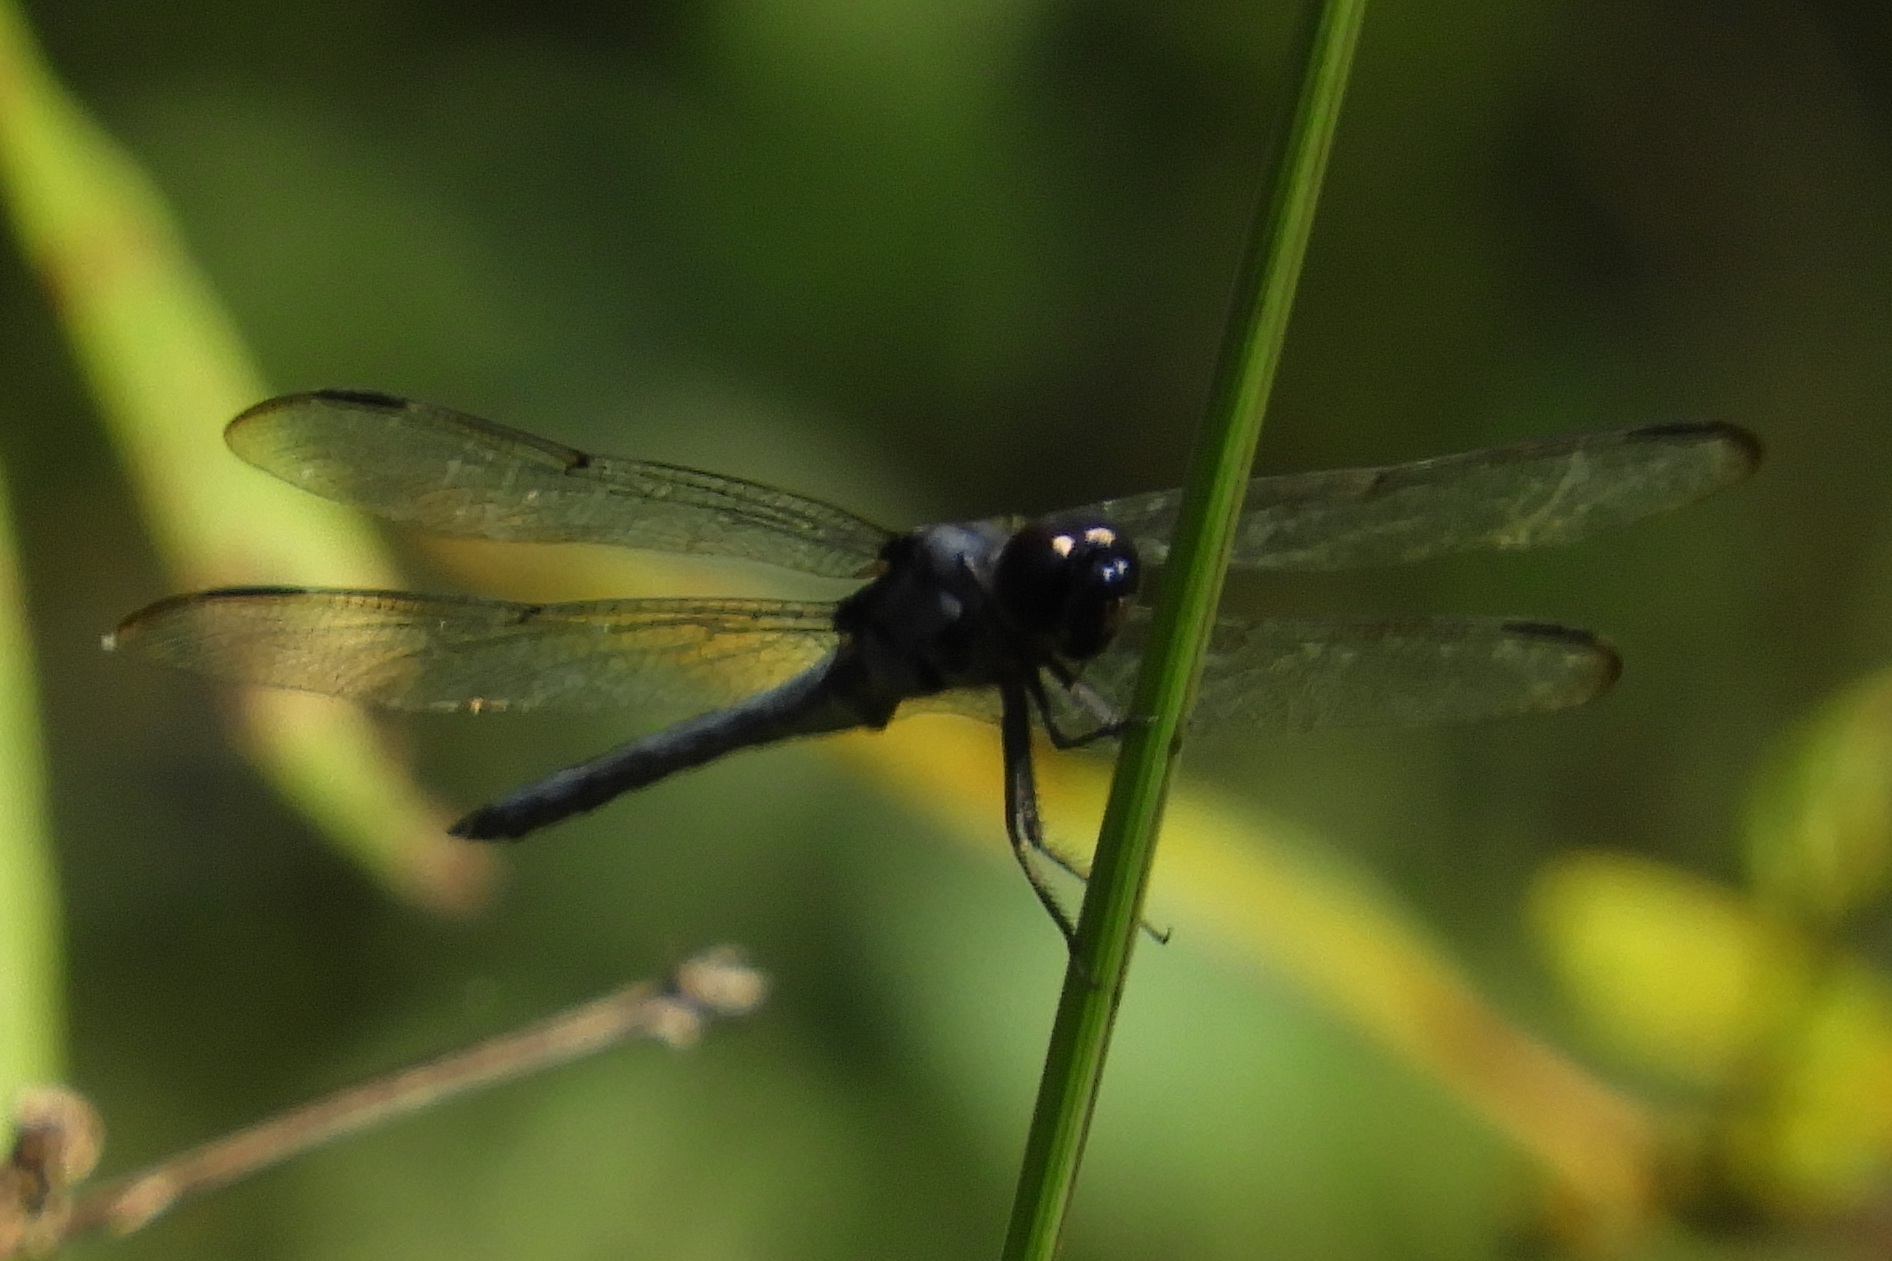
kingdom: Animalia
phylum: Arthropoda
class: Insecta
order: Odonata
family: Libellulidae
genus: Libellula
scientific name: Libellula incesta
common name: Slaty skimmer
